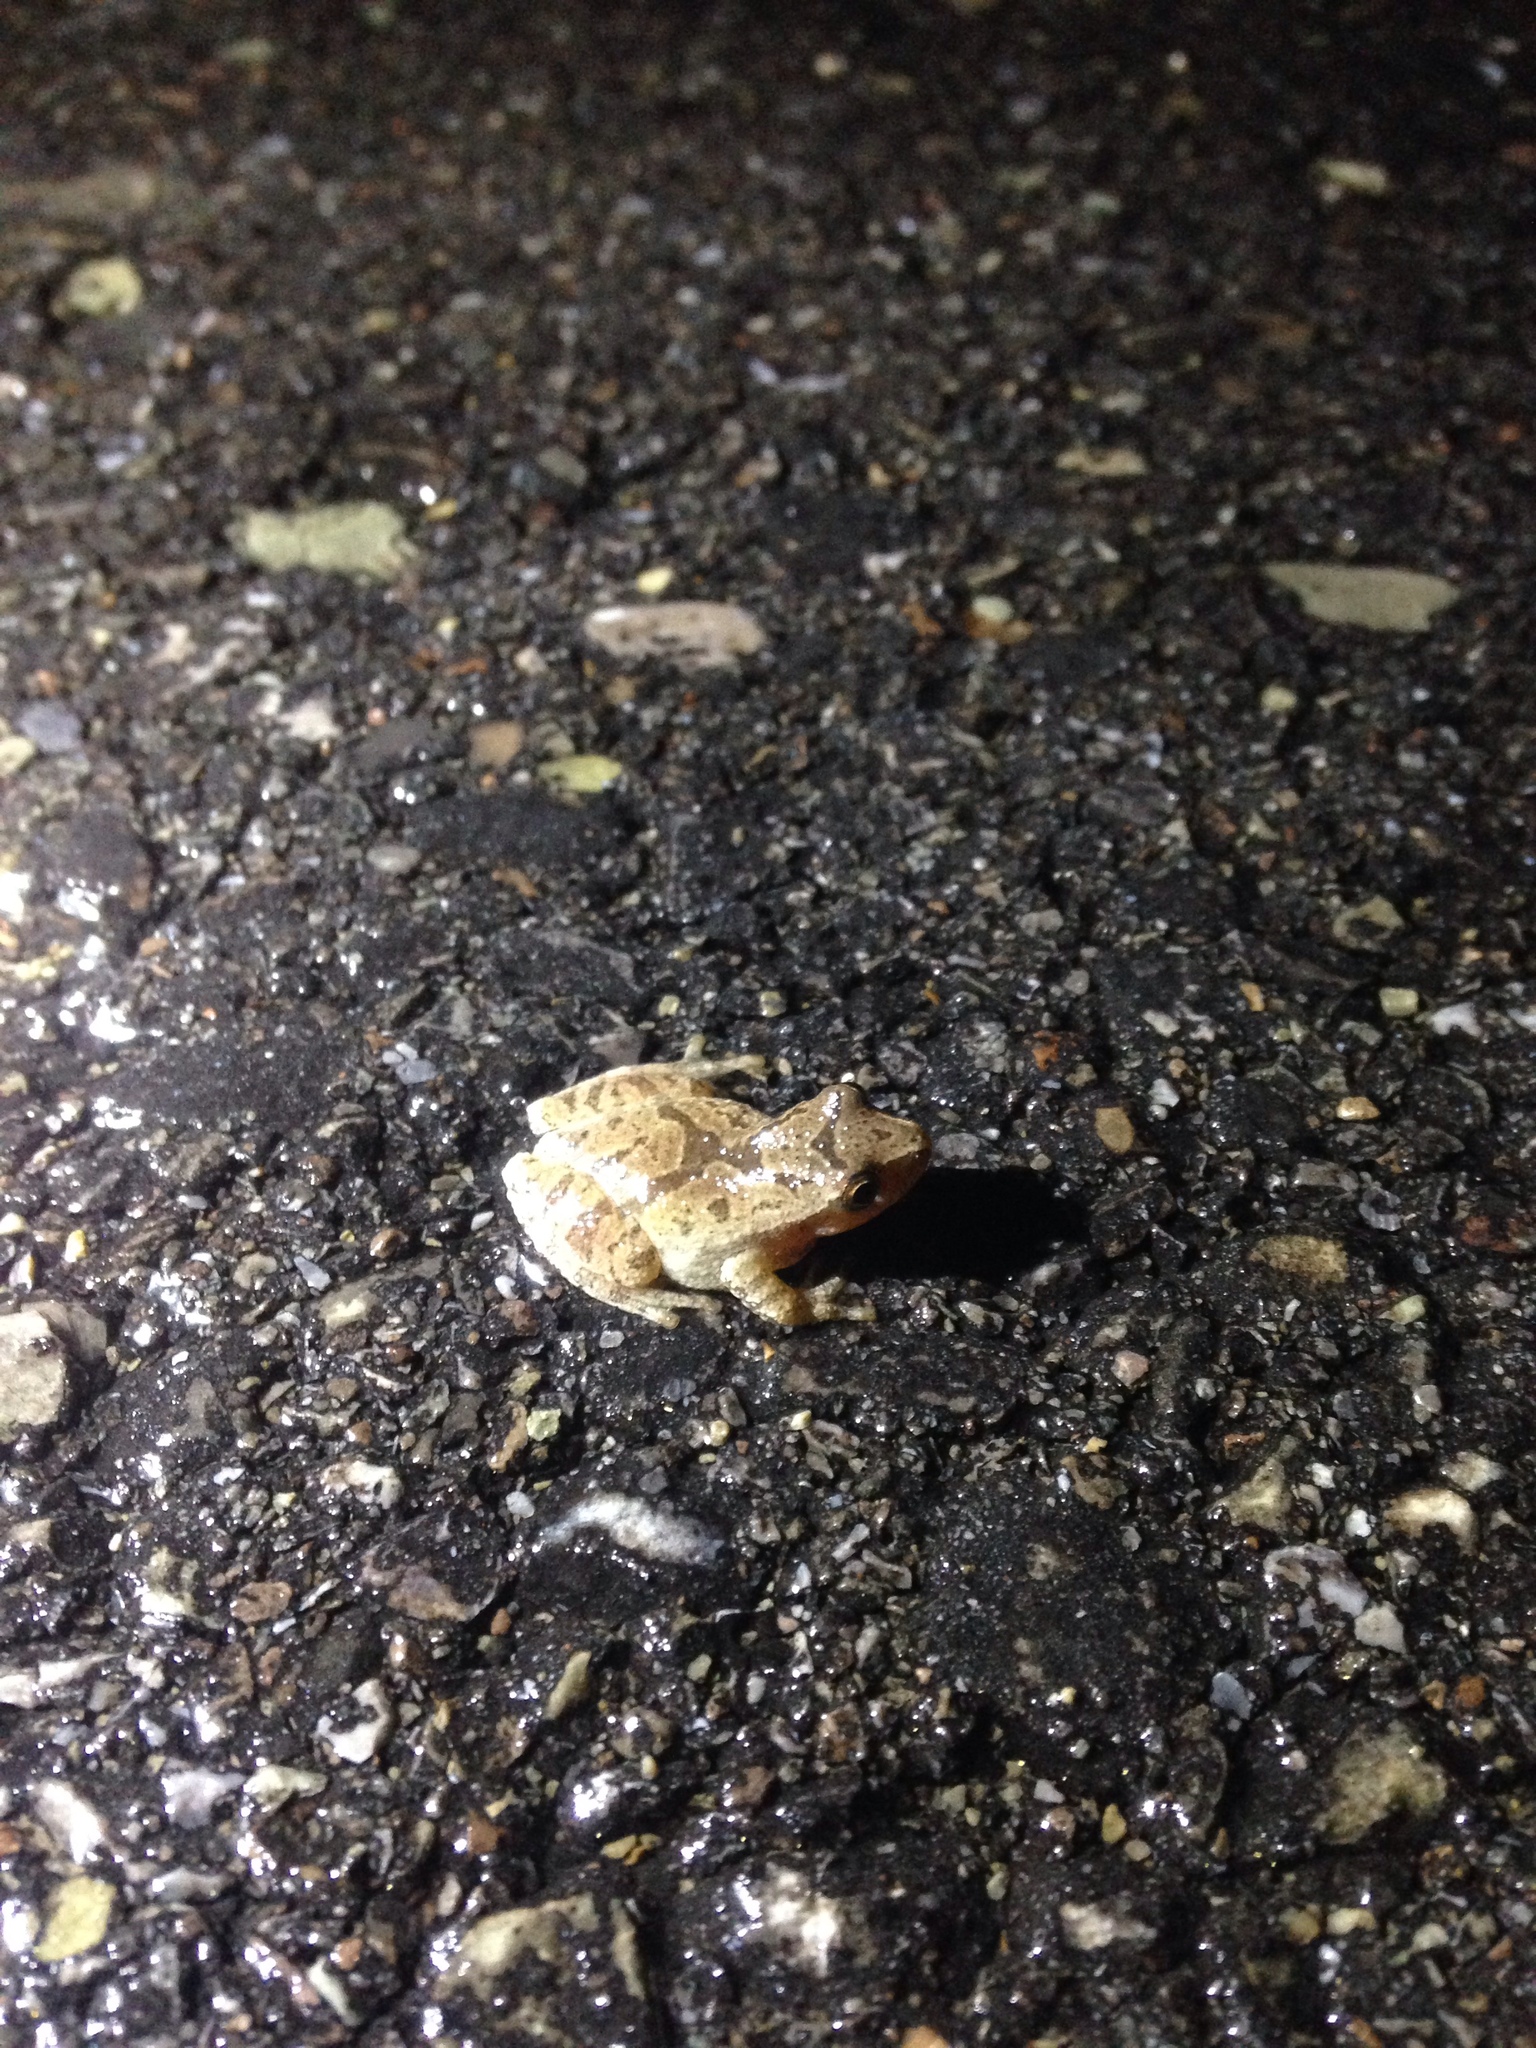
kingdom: Animalia
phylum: Chordata
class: Amphibia
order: Anura
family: Hylidae
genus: Pseudacris
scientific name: Pseudacris crucifer
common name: Spring peeper
